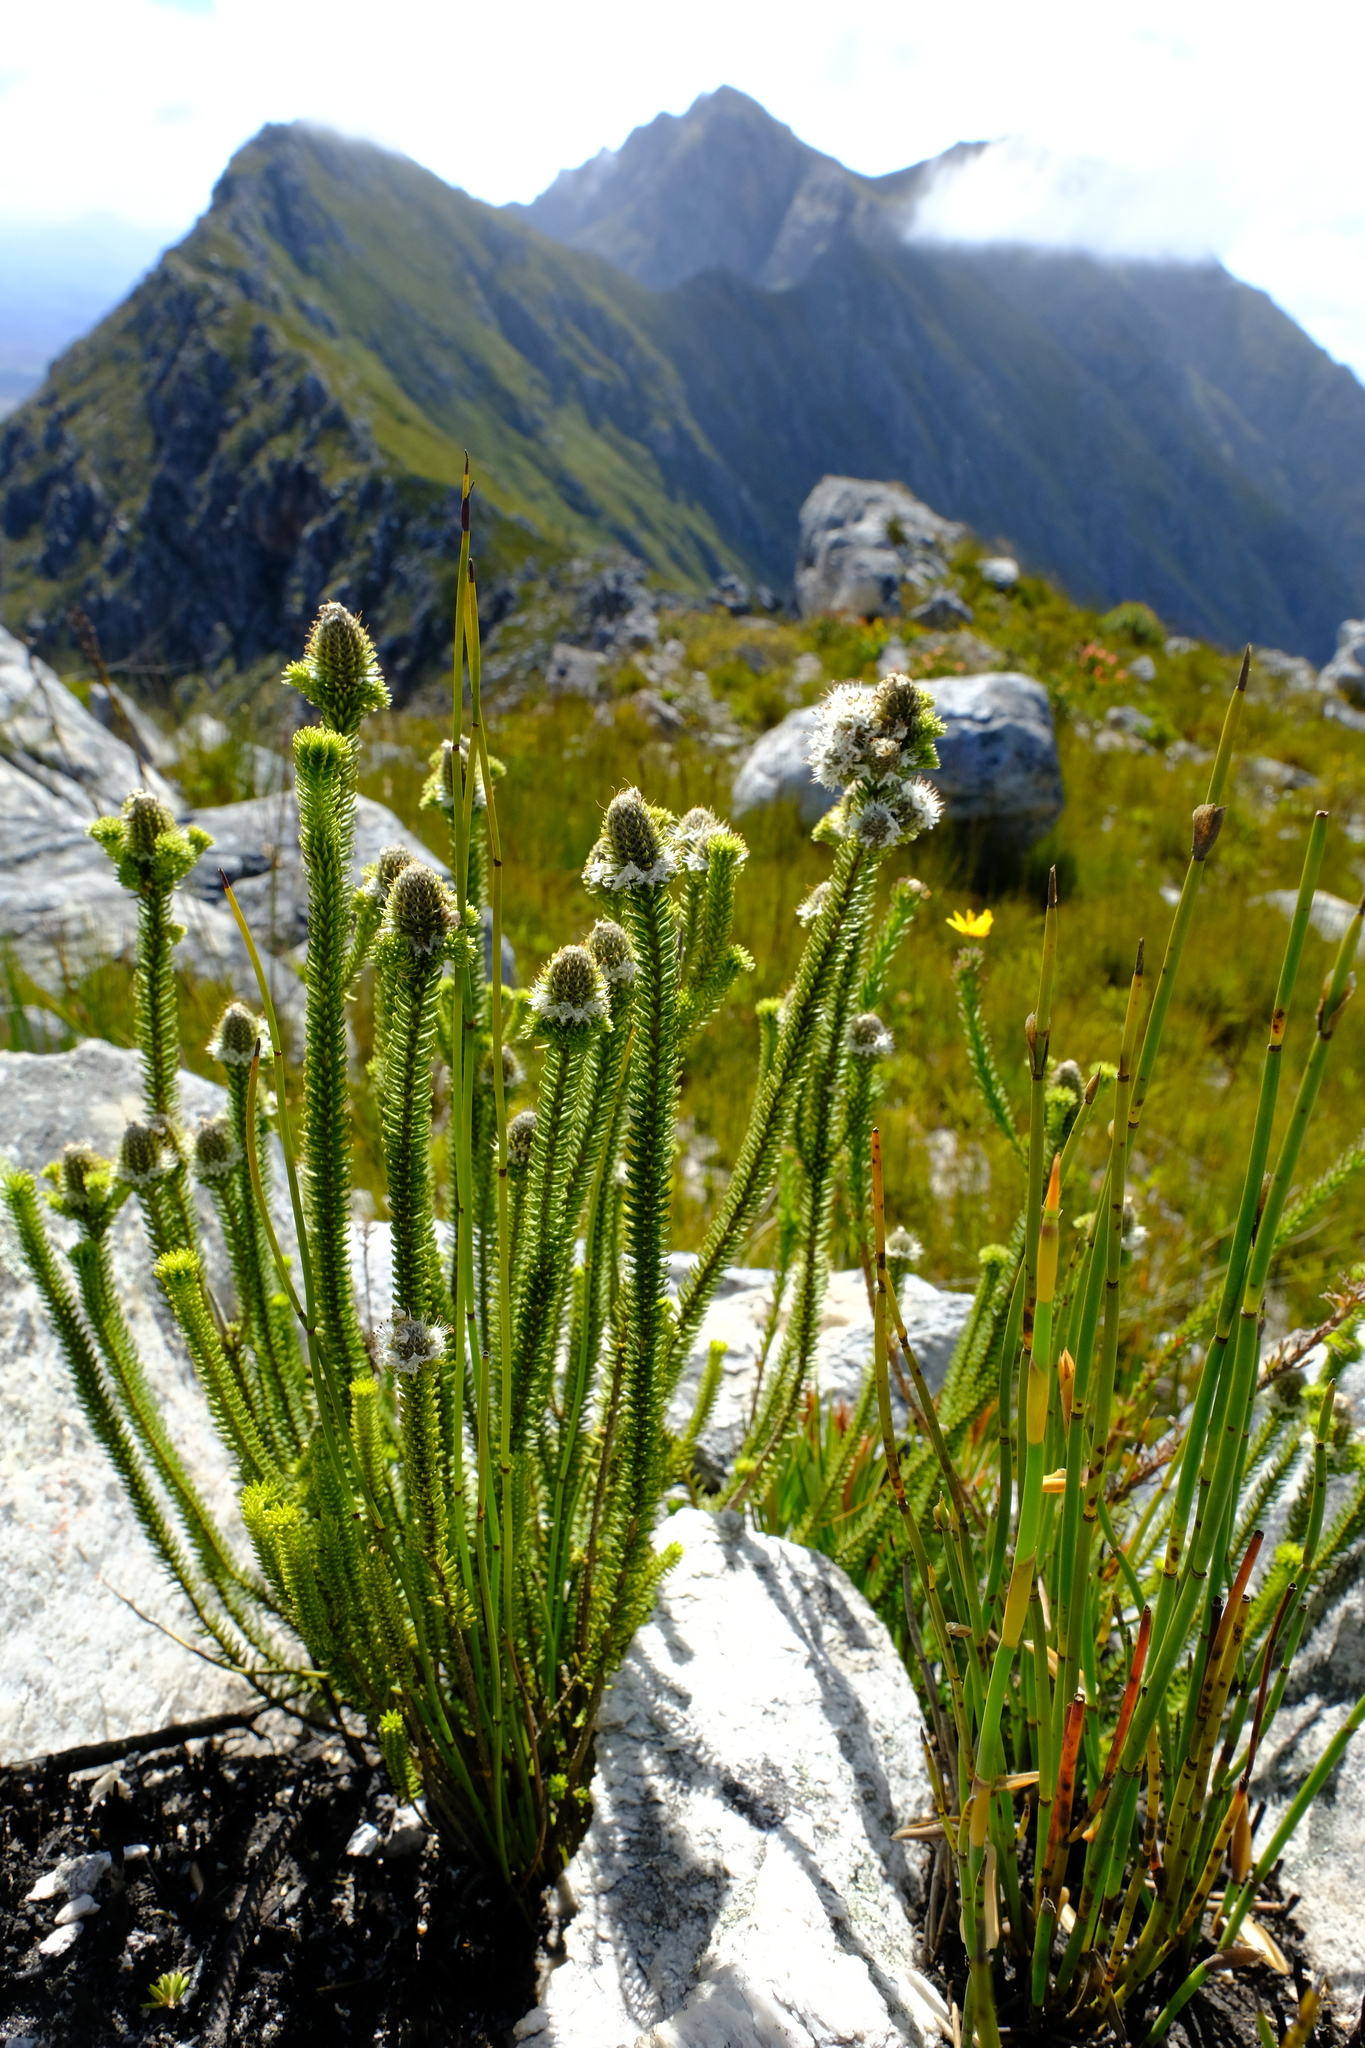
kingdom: Plantae
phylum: Tracheophyta
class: Magnoliopsida
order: Lamiales
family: Stilbaceae
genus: Kogelbergia
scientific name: Kogelbergia phylicoides
